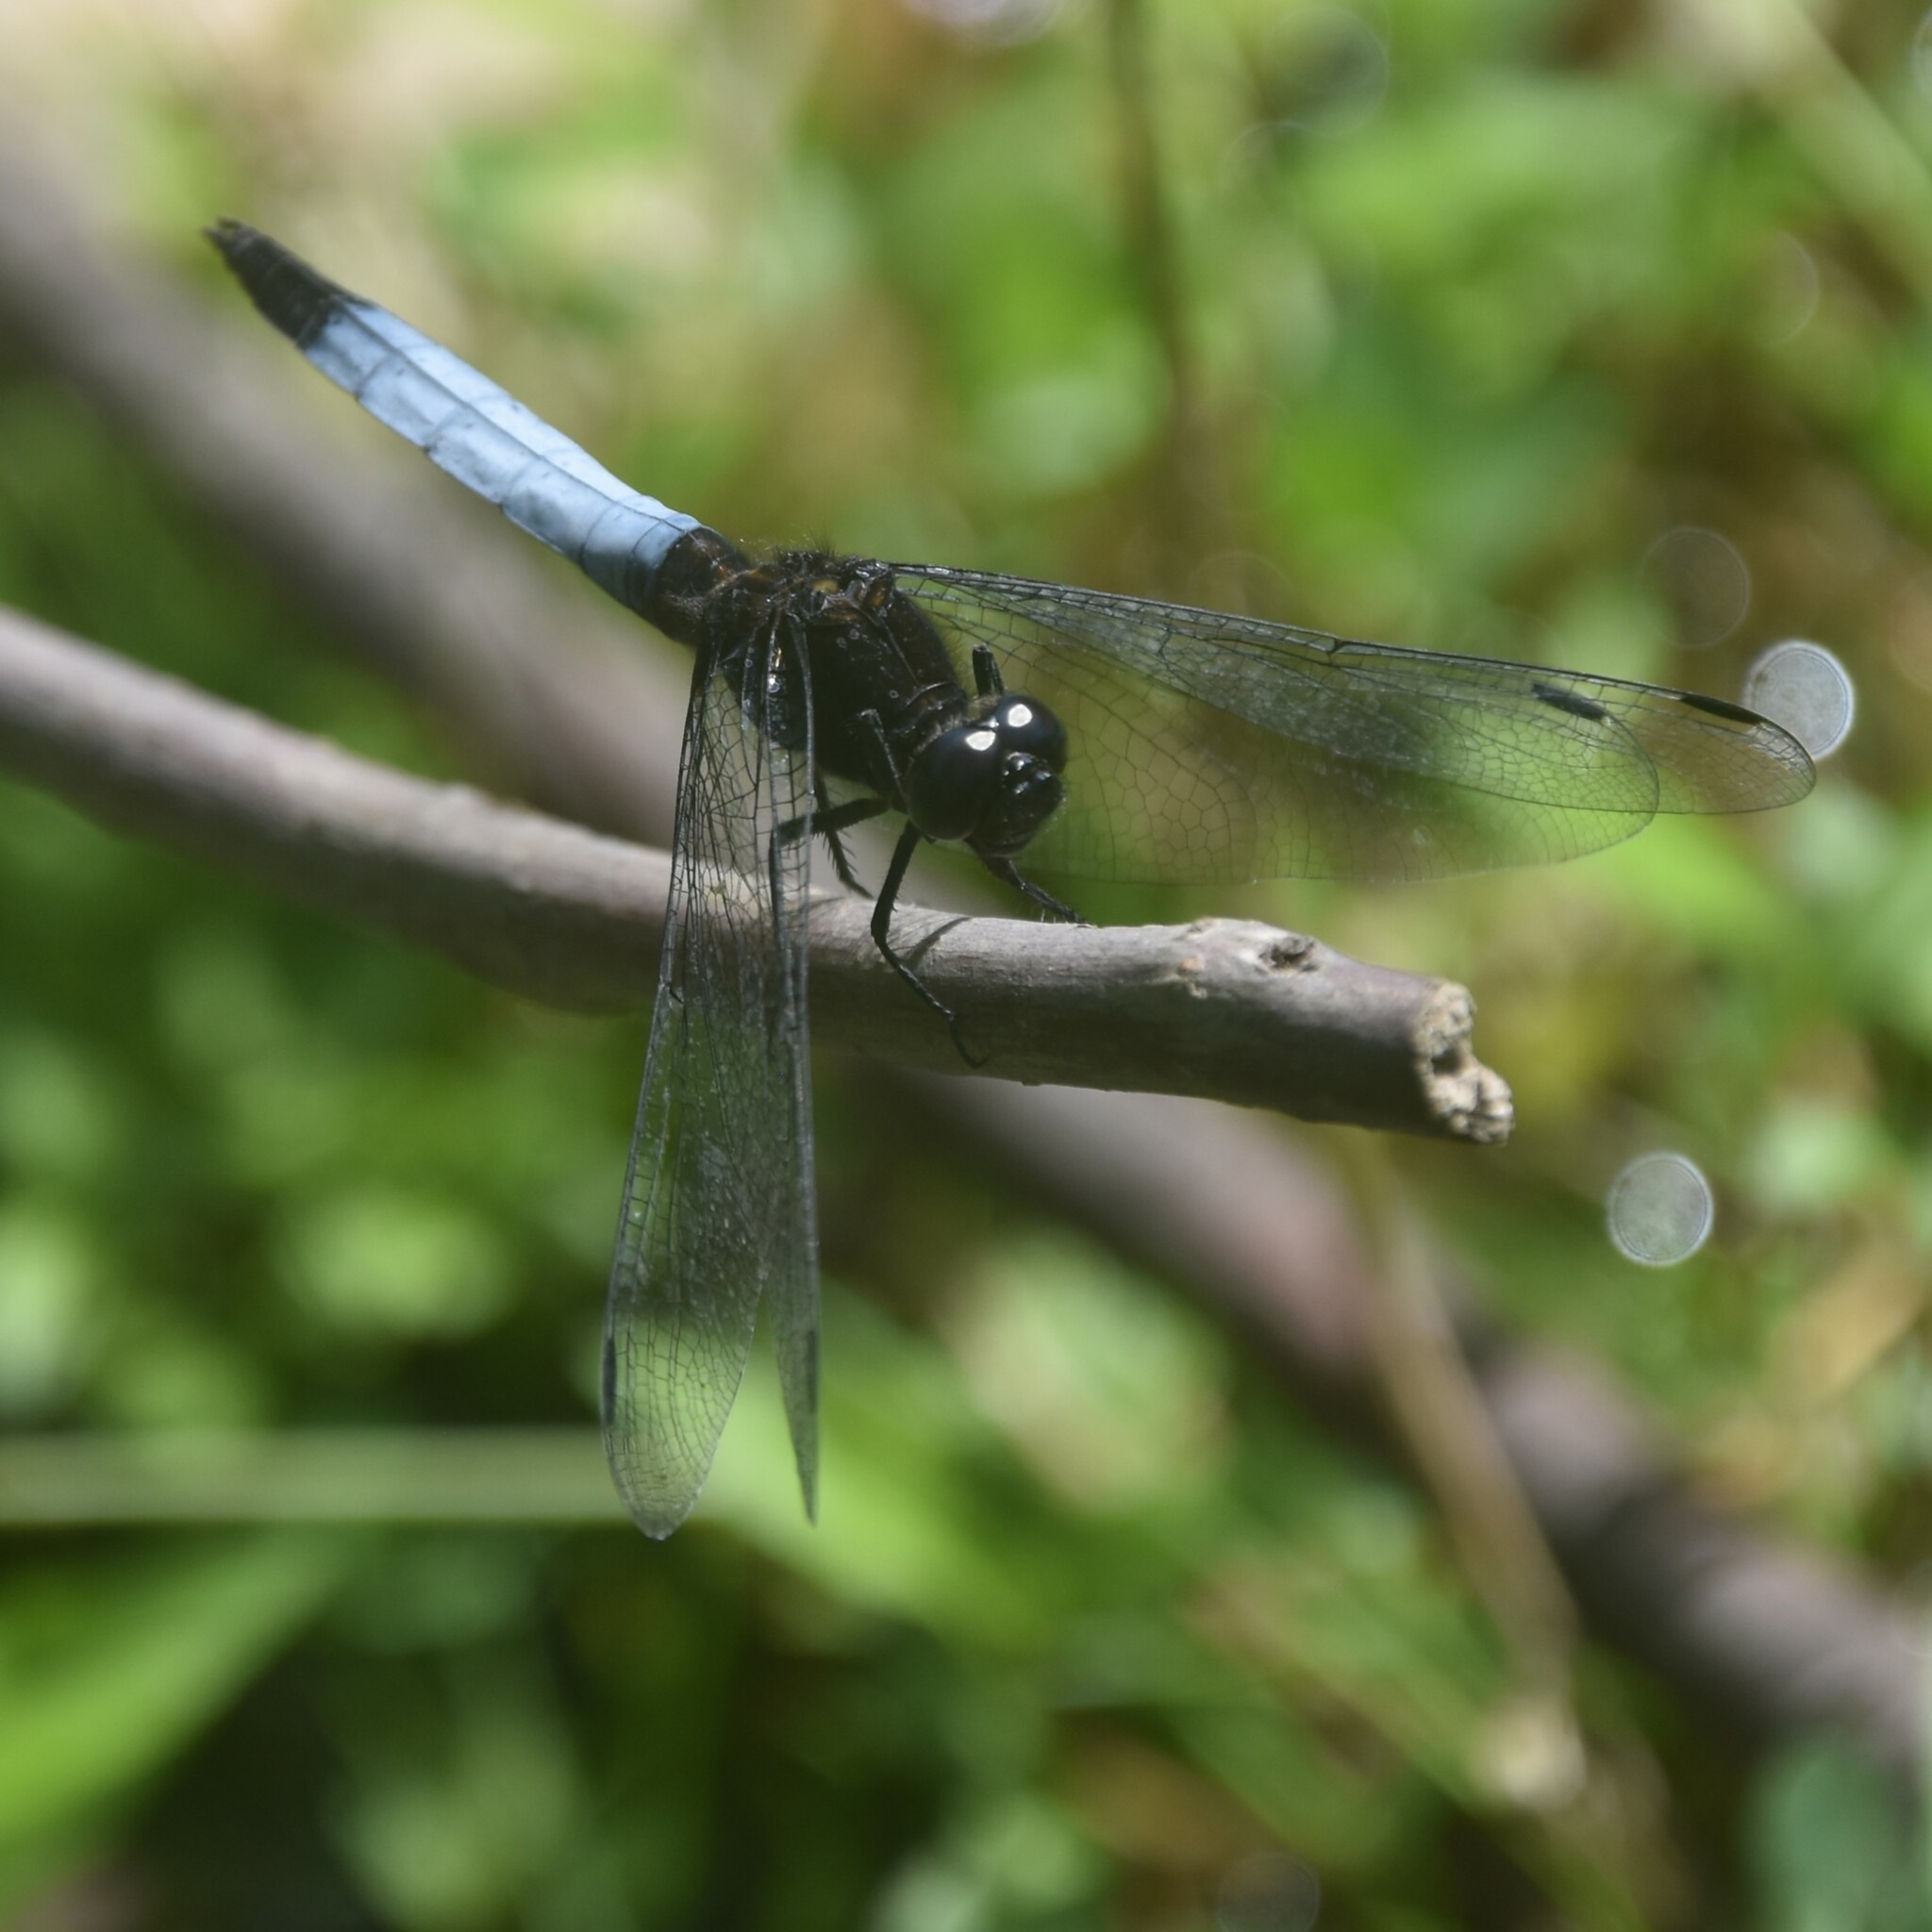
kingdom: Animalia
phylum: Arthropoda
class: Insecta
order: Odonata
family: Libellulidae
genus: Orthetrum
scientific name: Orthetrum triangulare
